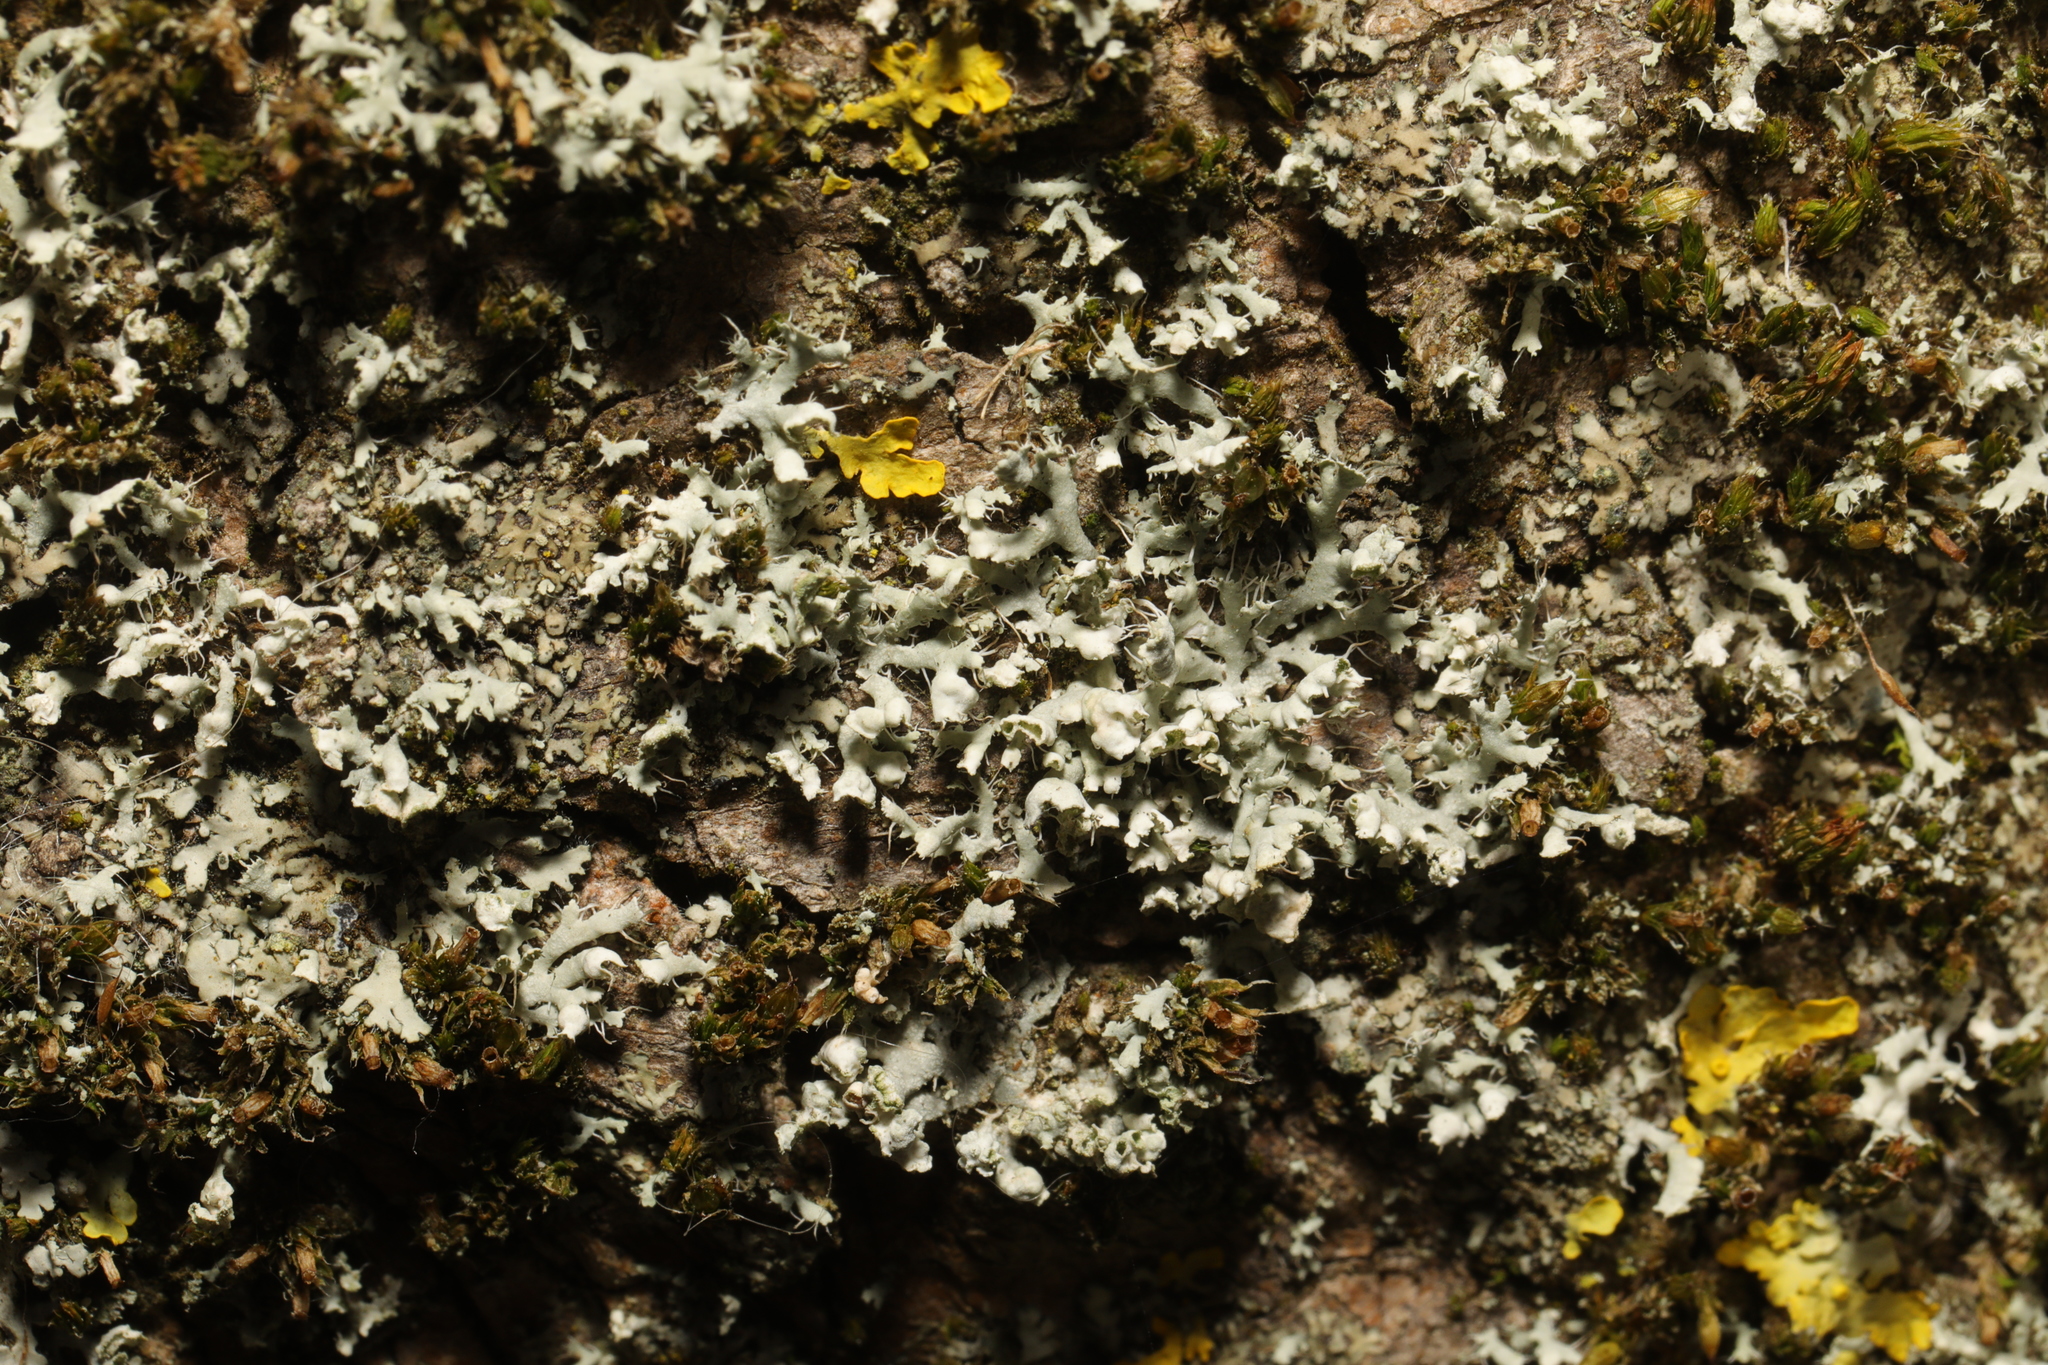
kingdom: Fungi
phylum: Ascomycota
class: Lecanoromycetes
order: Caliciales
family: Physciaceae
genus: Physcia
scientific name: Physcia adscendens
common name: Hooded rosette lichen
